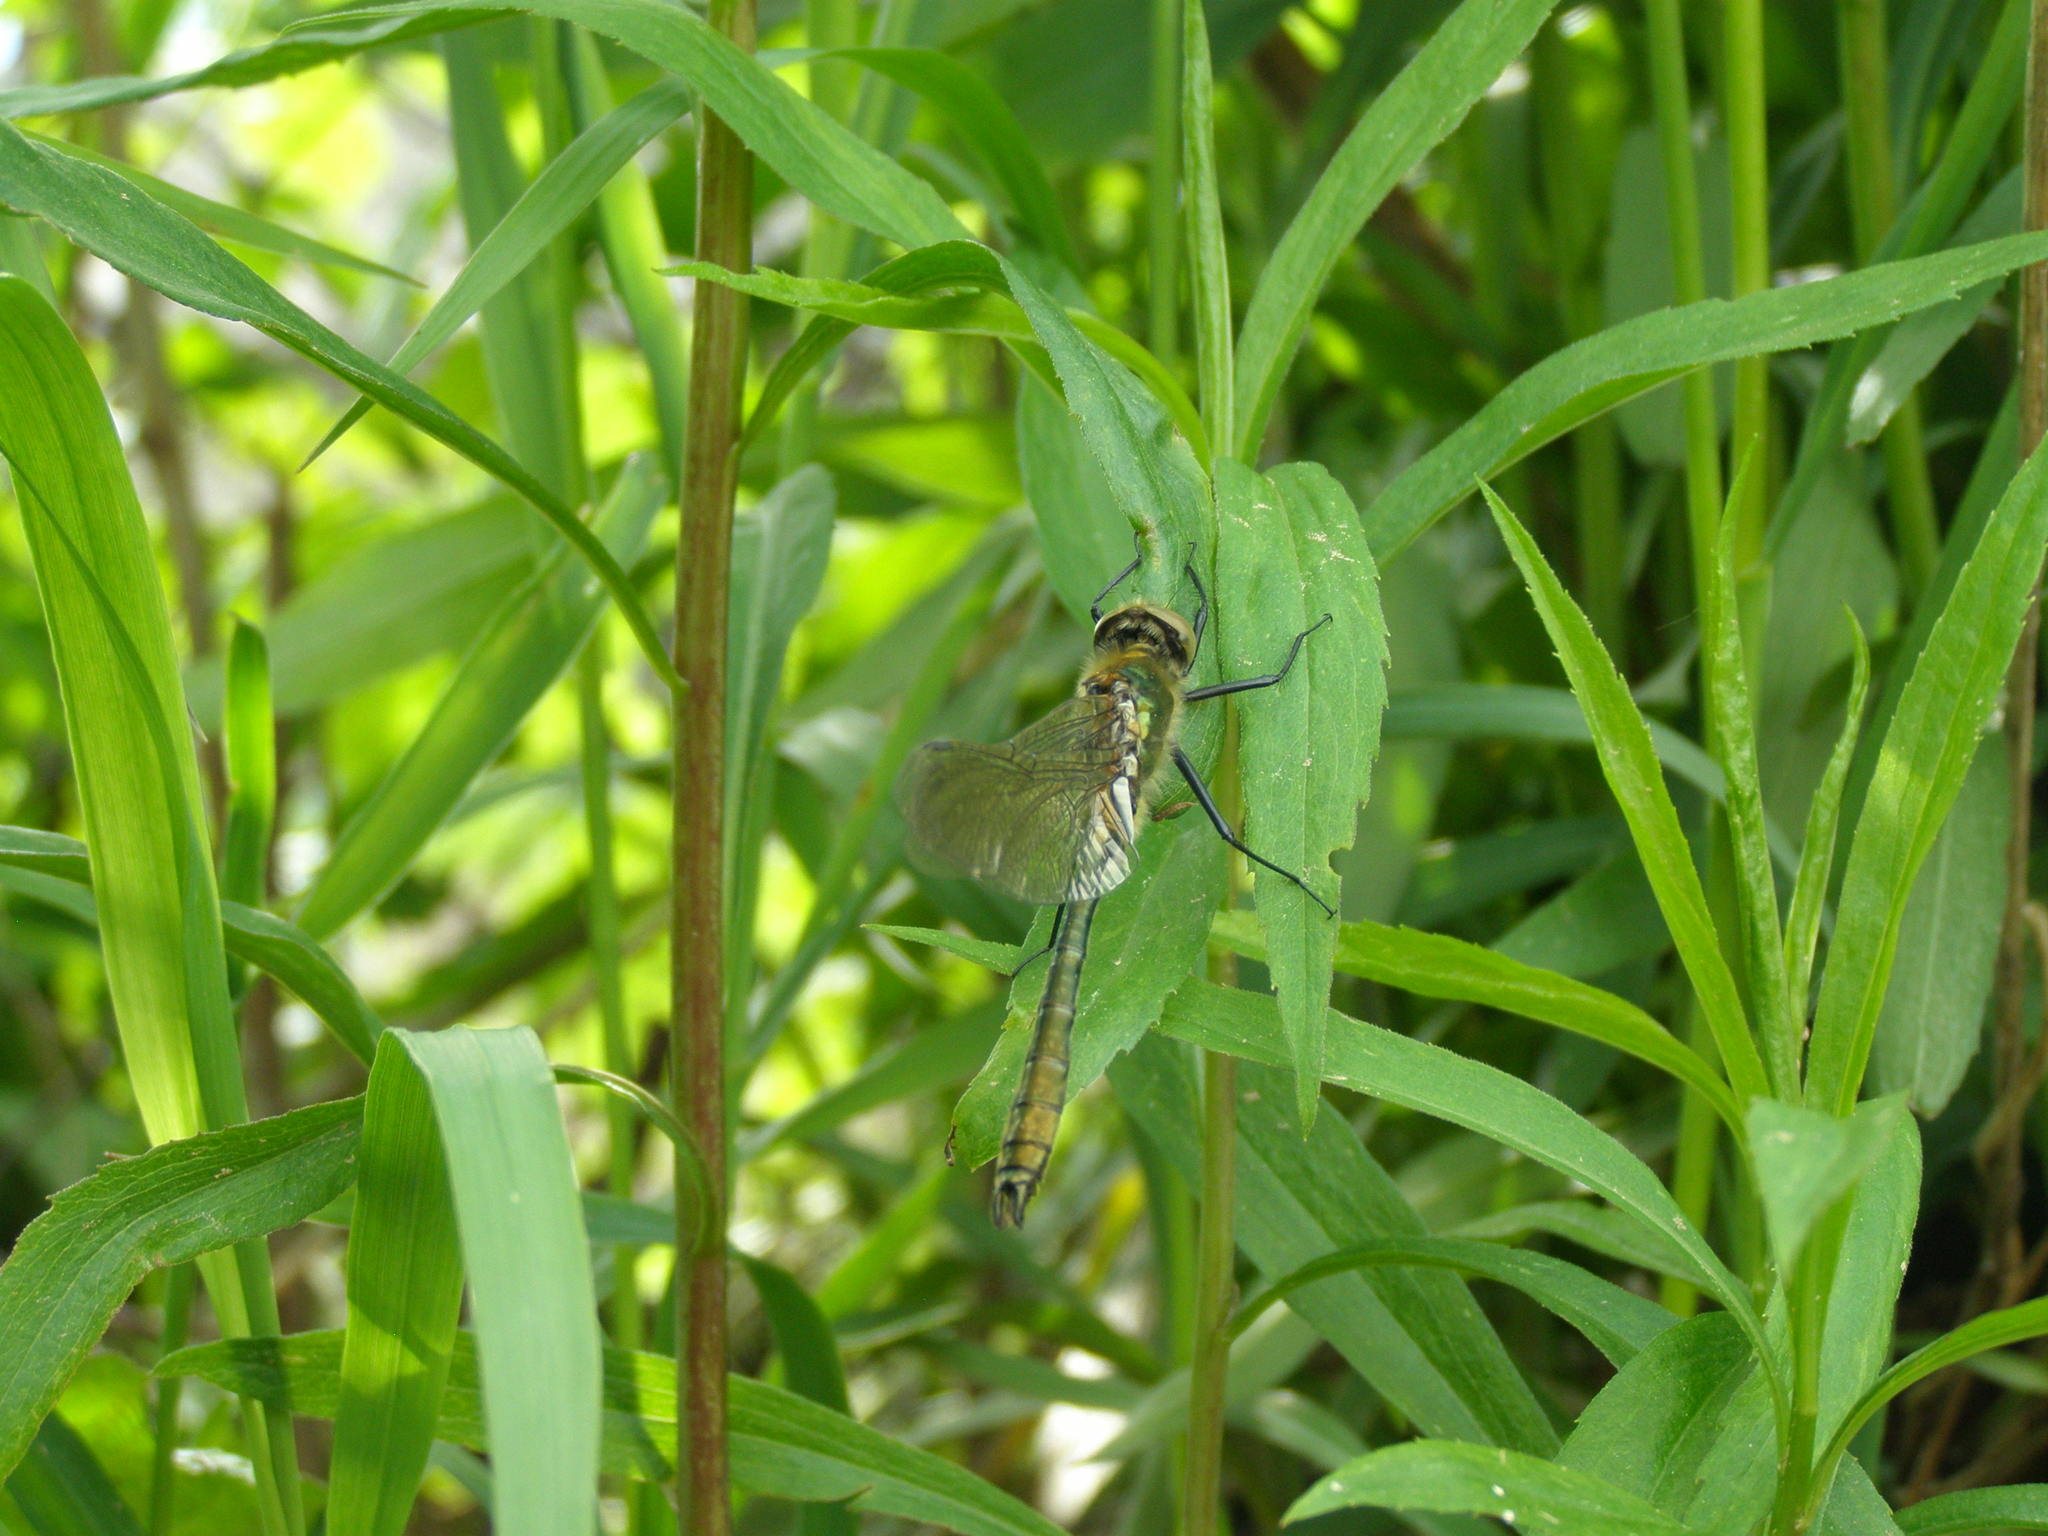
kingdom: Animalia
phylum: Arthropoda
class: Insecta
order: Odonata
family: Corduliidae
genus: Cordulia
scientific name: Cordulia aenea
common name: Downy emerald
